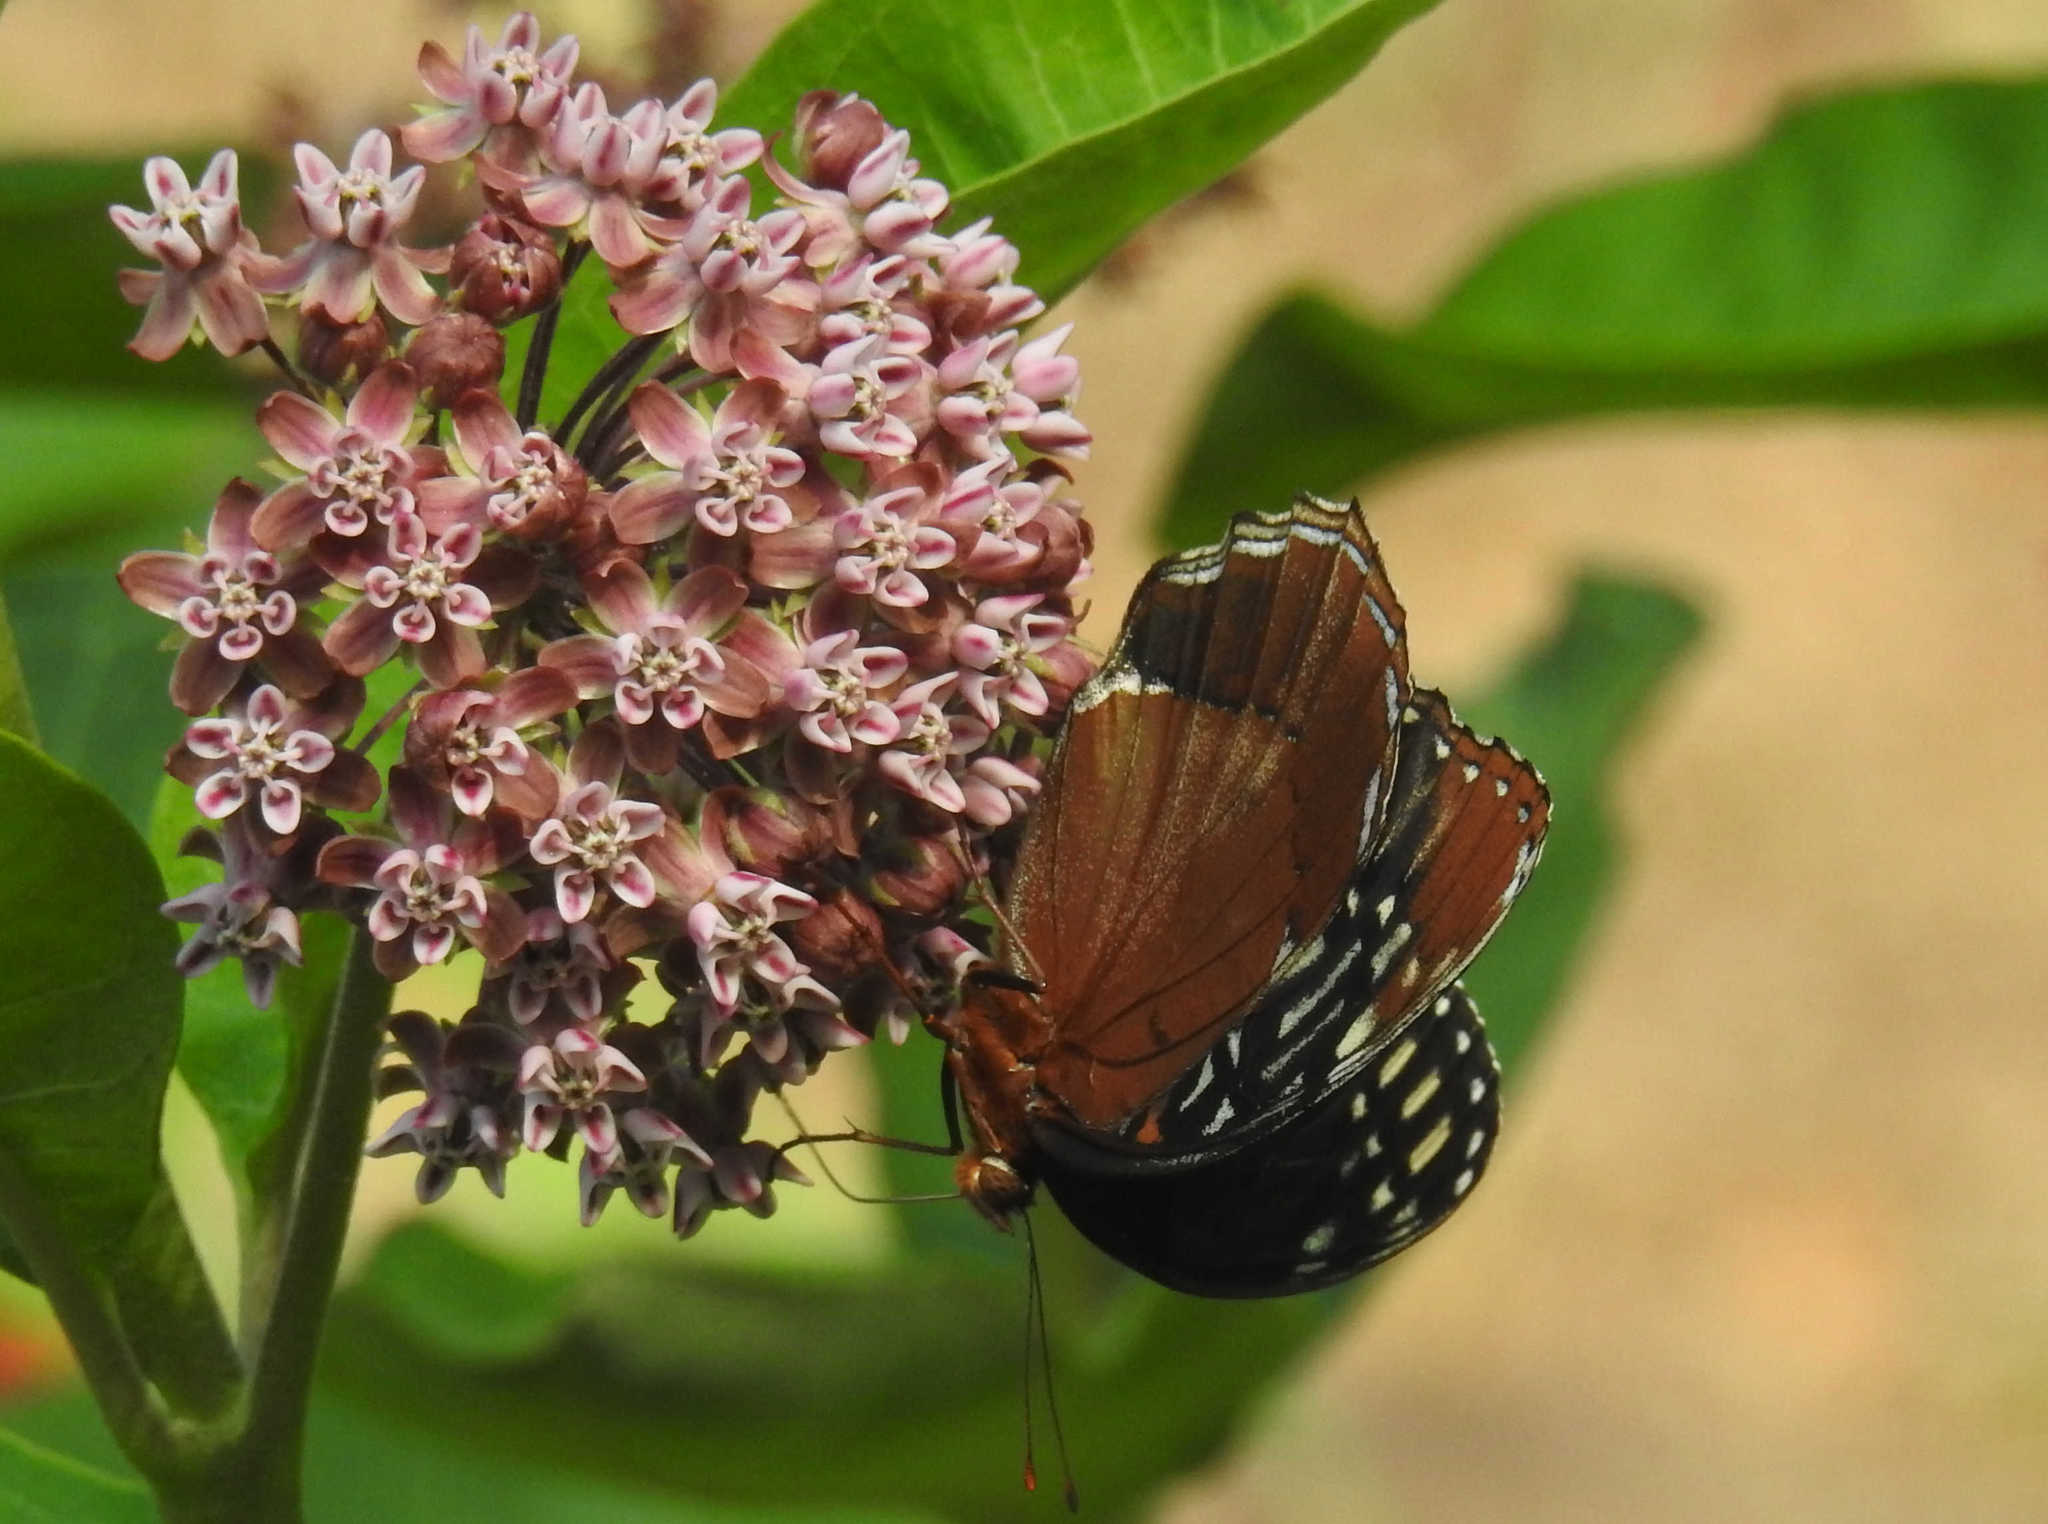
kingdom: Animalia
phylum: Arthropoda
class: Insecta
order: Lepidoptera
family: Nymphalidae
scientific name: Nymphalidae
